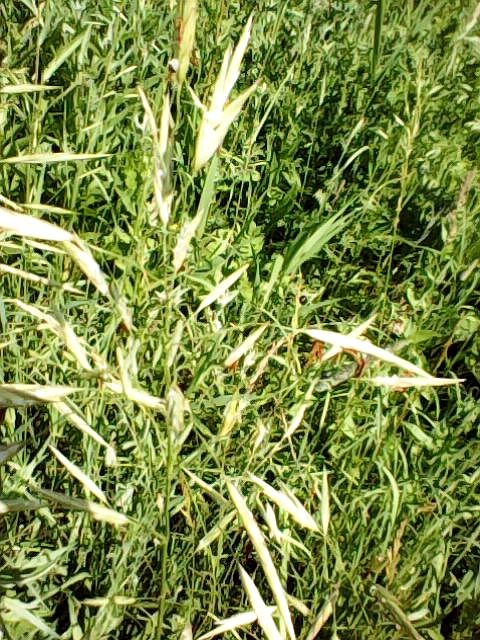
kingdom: Plantae
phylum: Tracheophyta
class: Liliopsida
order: Poales
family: Poaceae
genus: Bromus
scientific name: Bromus inermis
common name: Smooth brome
